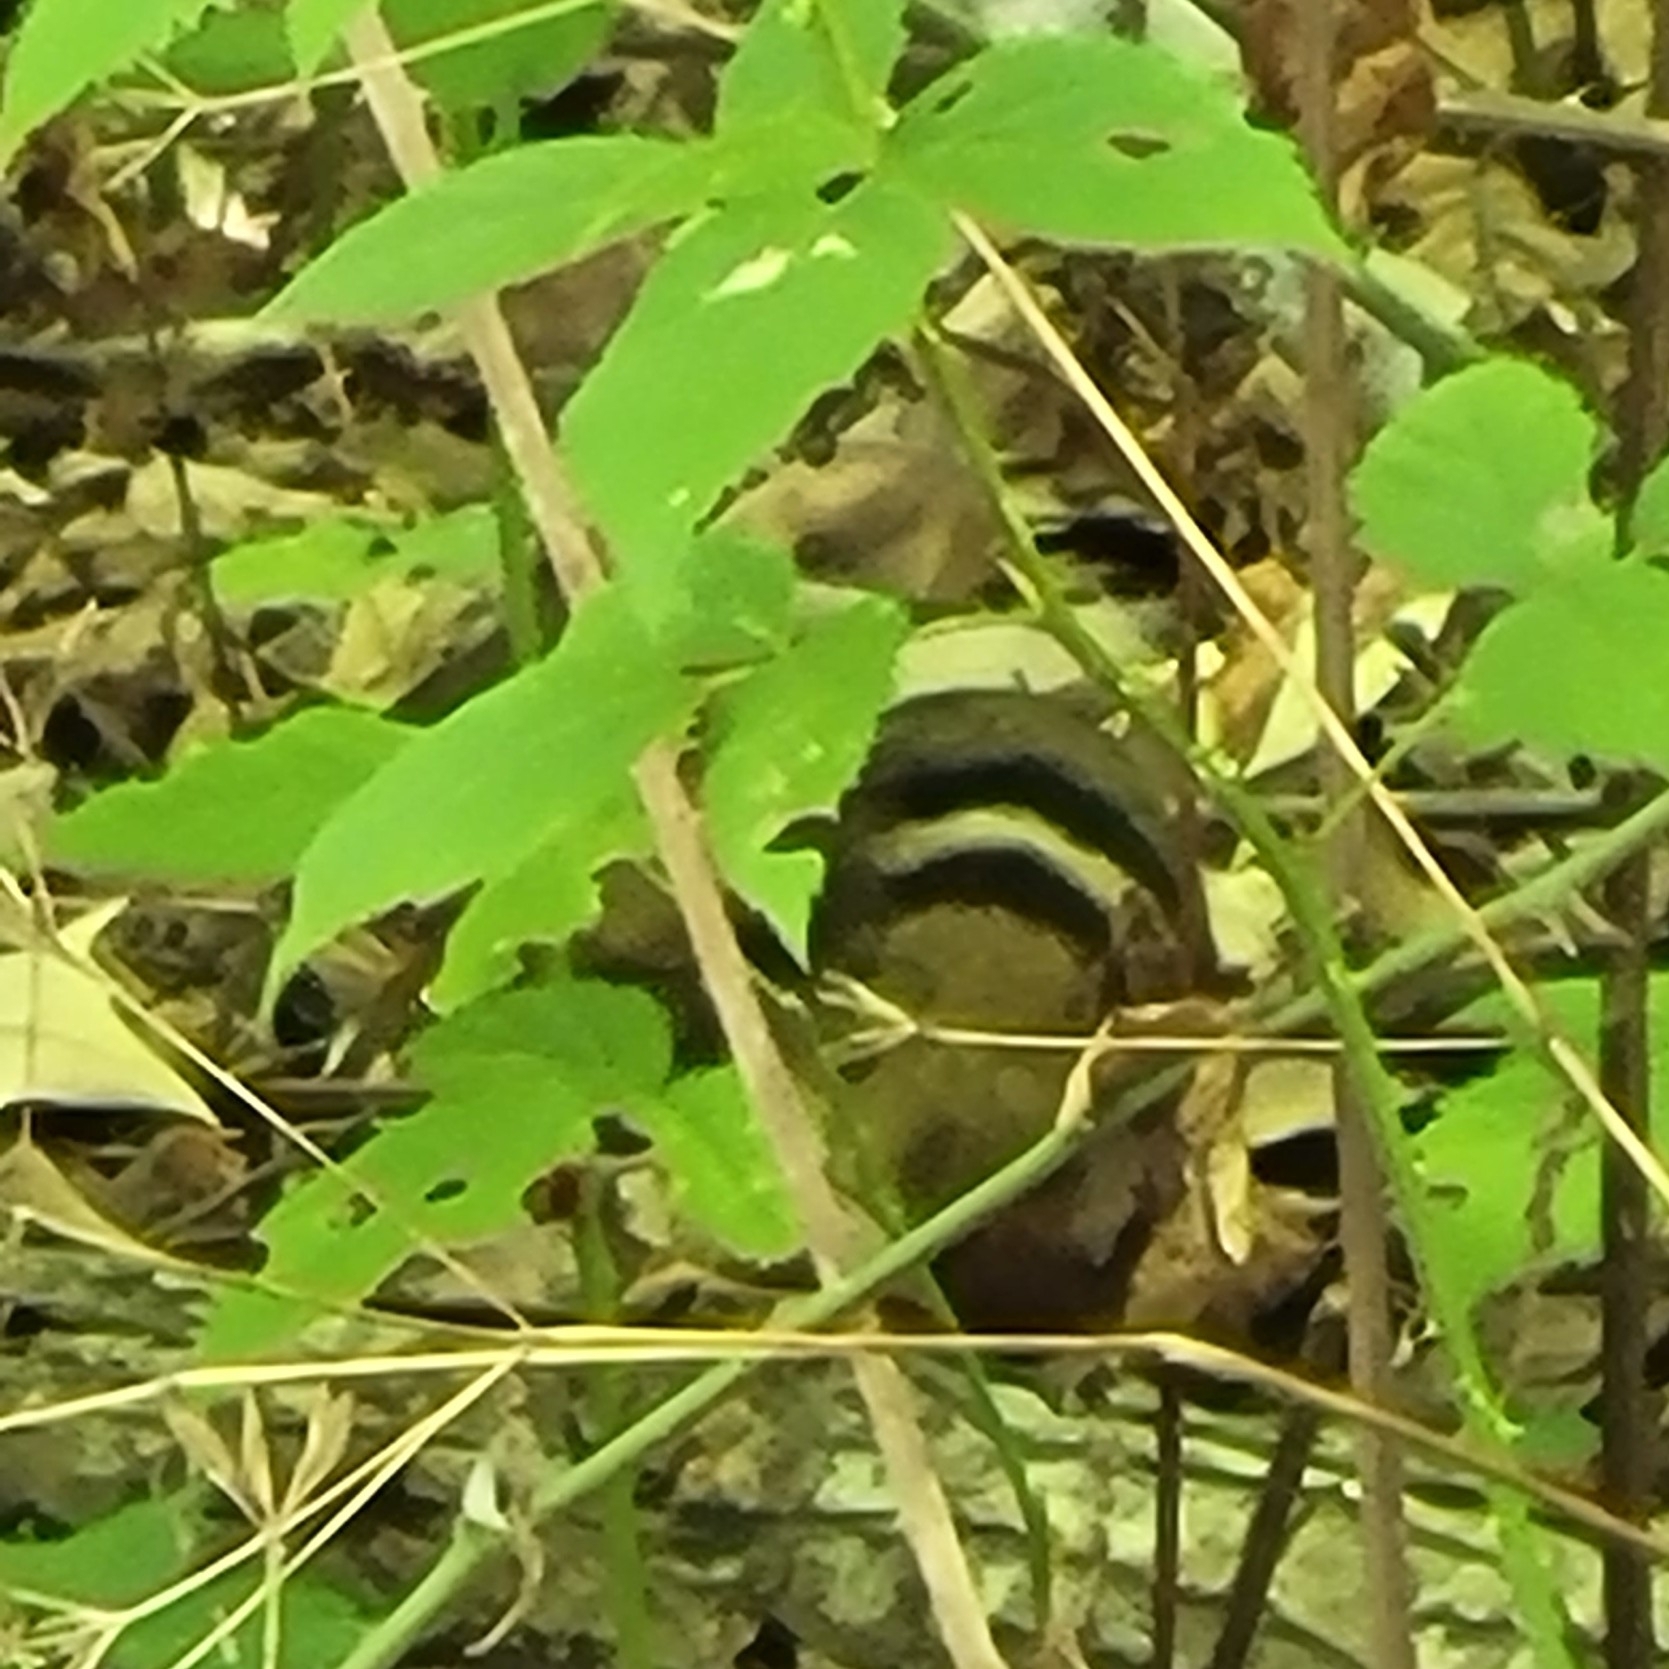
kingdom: Animalia
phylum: Chordata
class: Mammalia
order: Rodentia
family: Sciuridae
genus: Tamias
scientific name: Tamias striatus
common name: Eastern chipmunk
